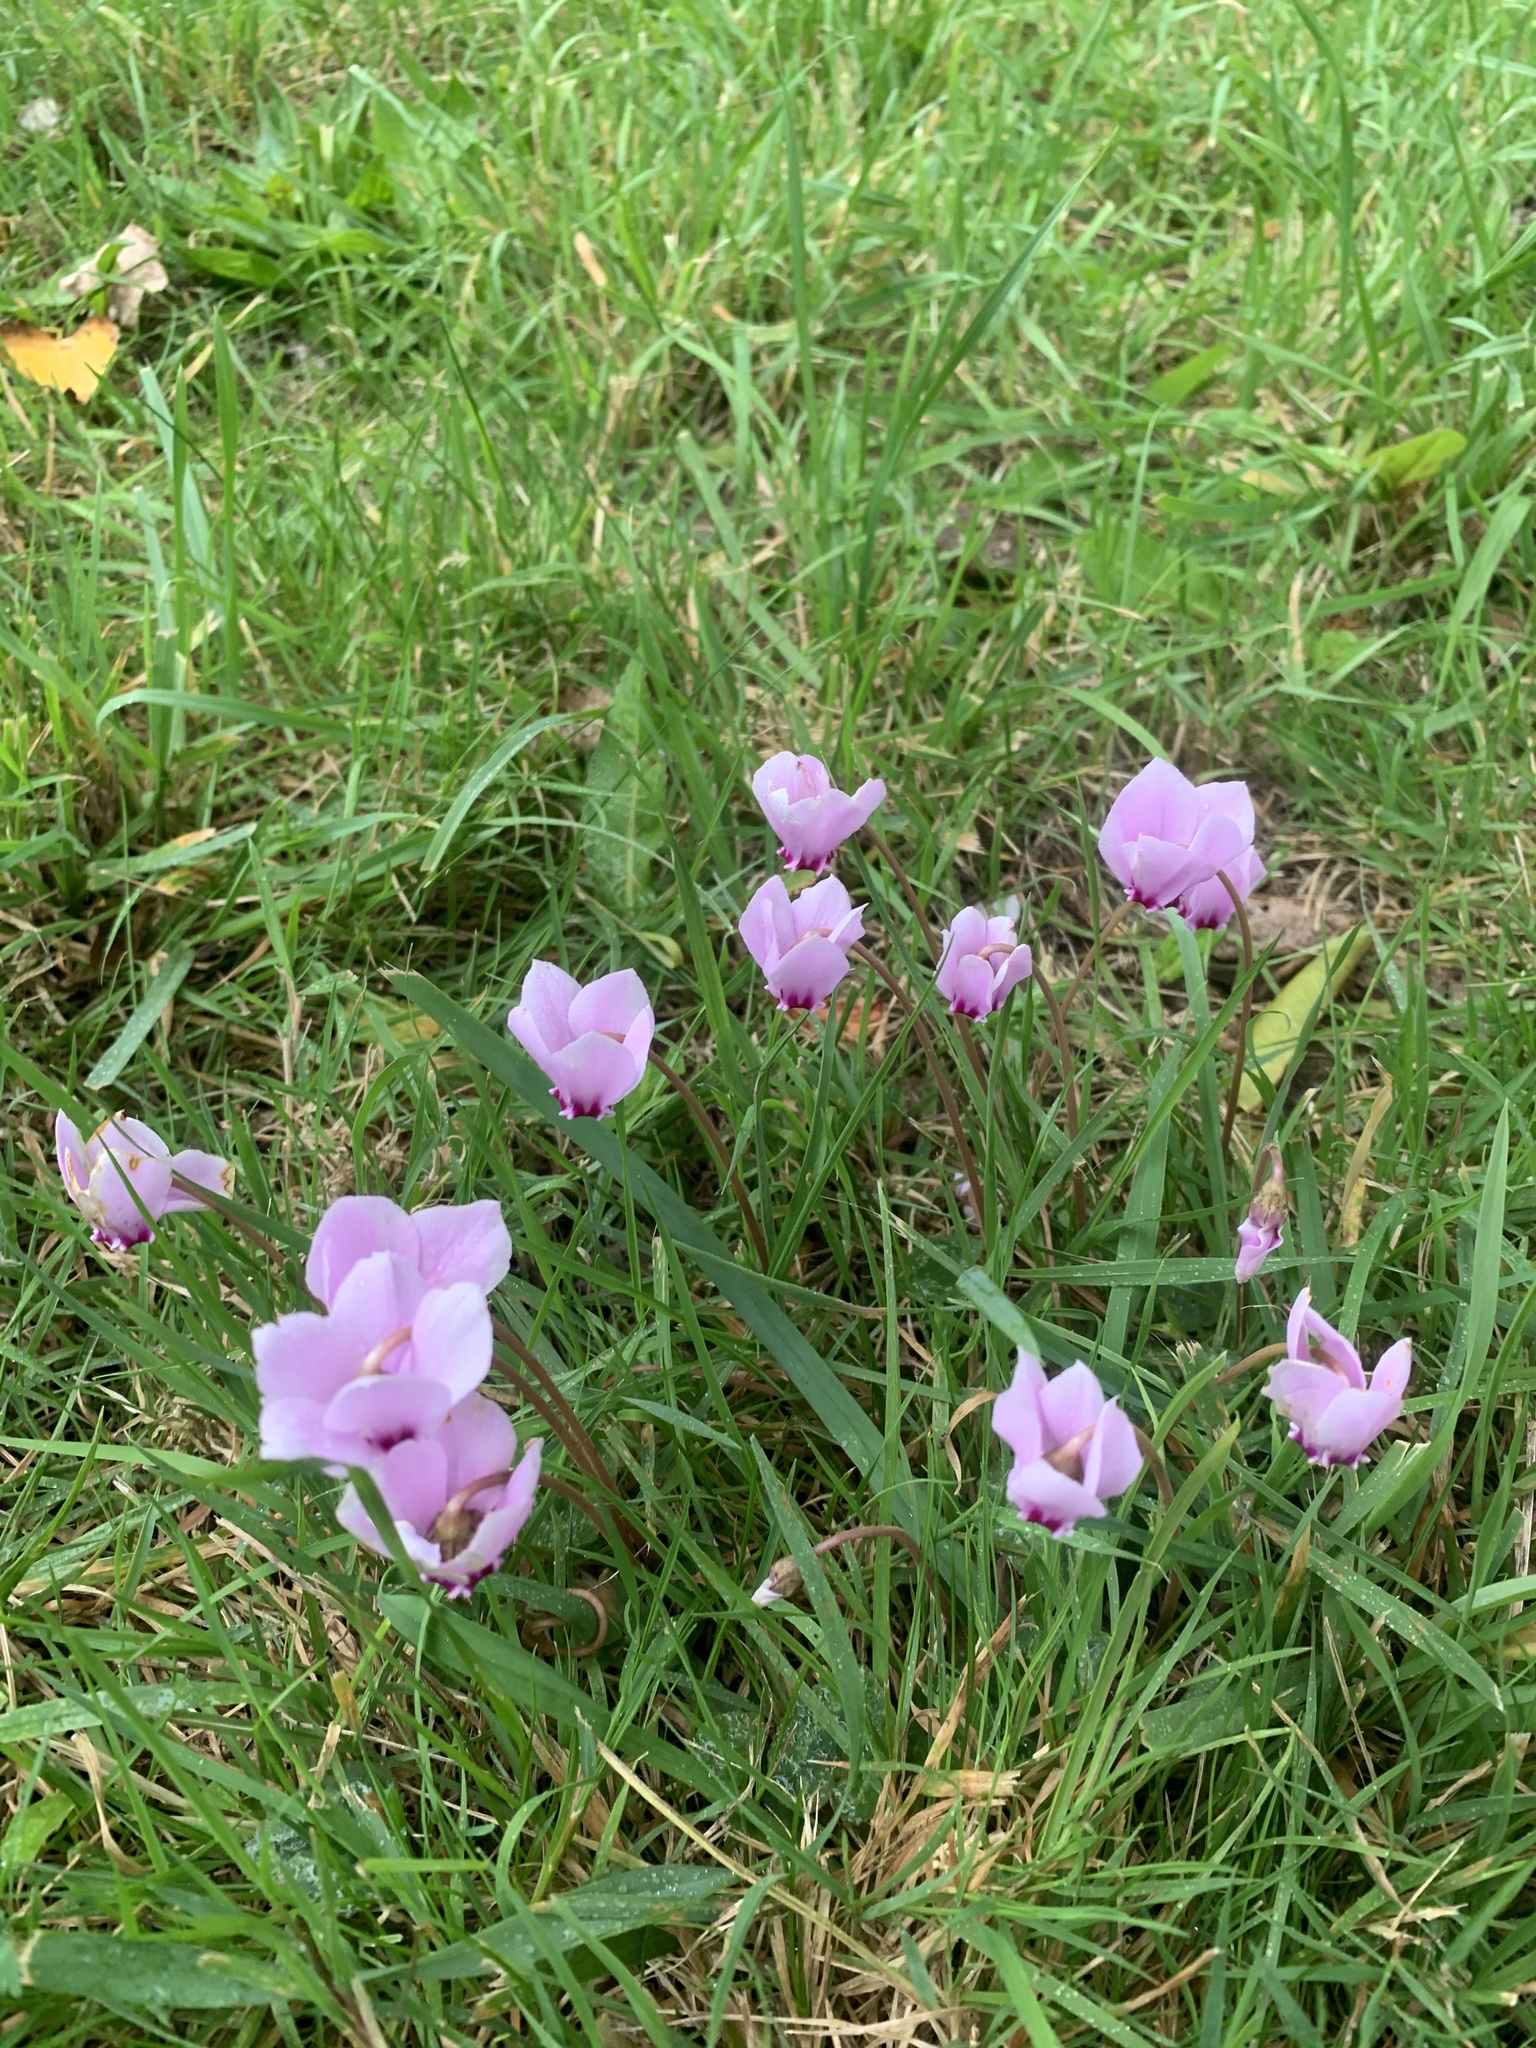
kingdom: Plantae
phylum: Tracheophyta
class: Magnoliopsida
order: Ericales
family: Primulaceae
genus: Cyclamen
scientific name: Cyclamen hederifolium
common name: Sowbread
